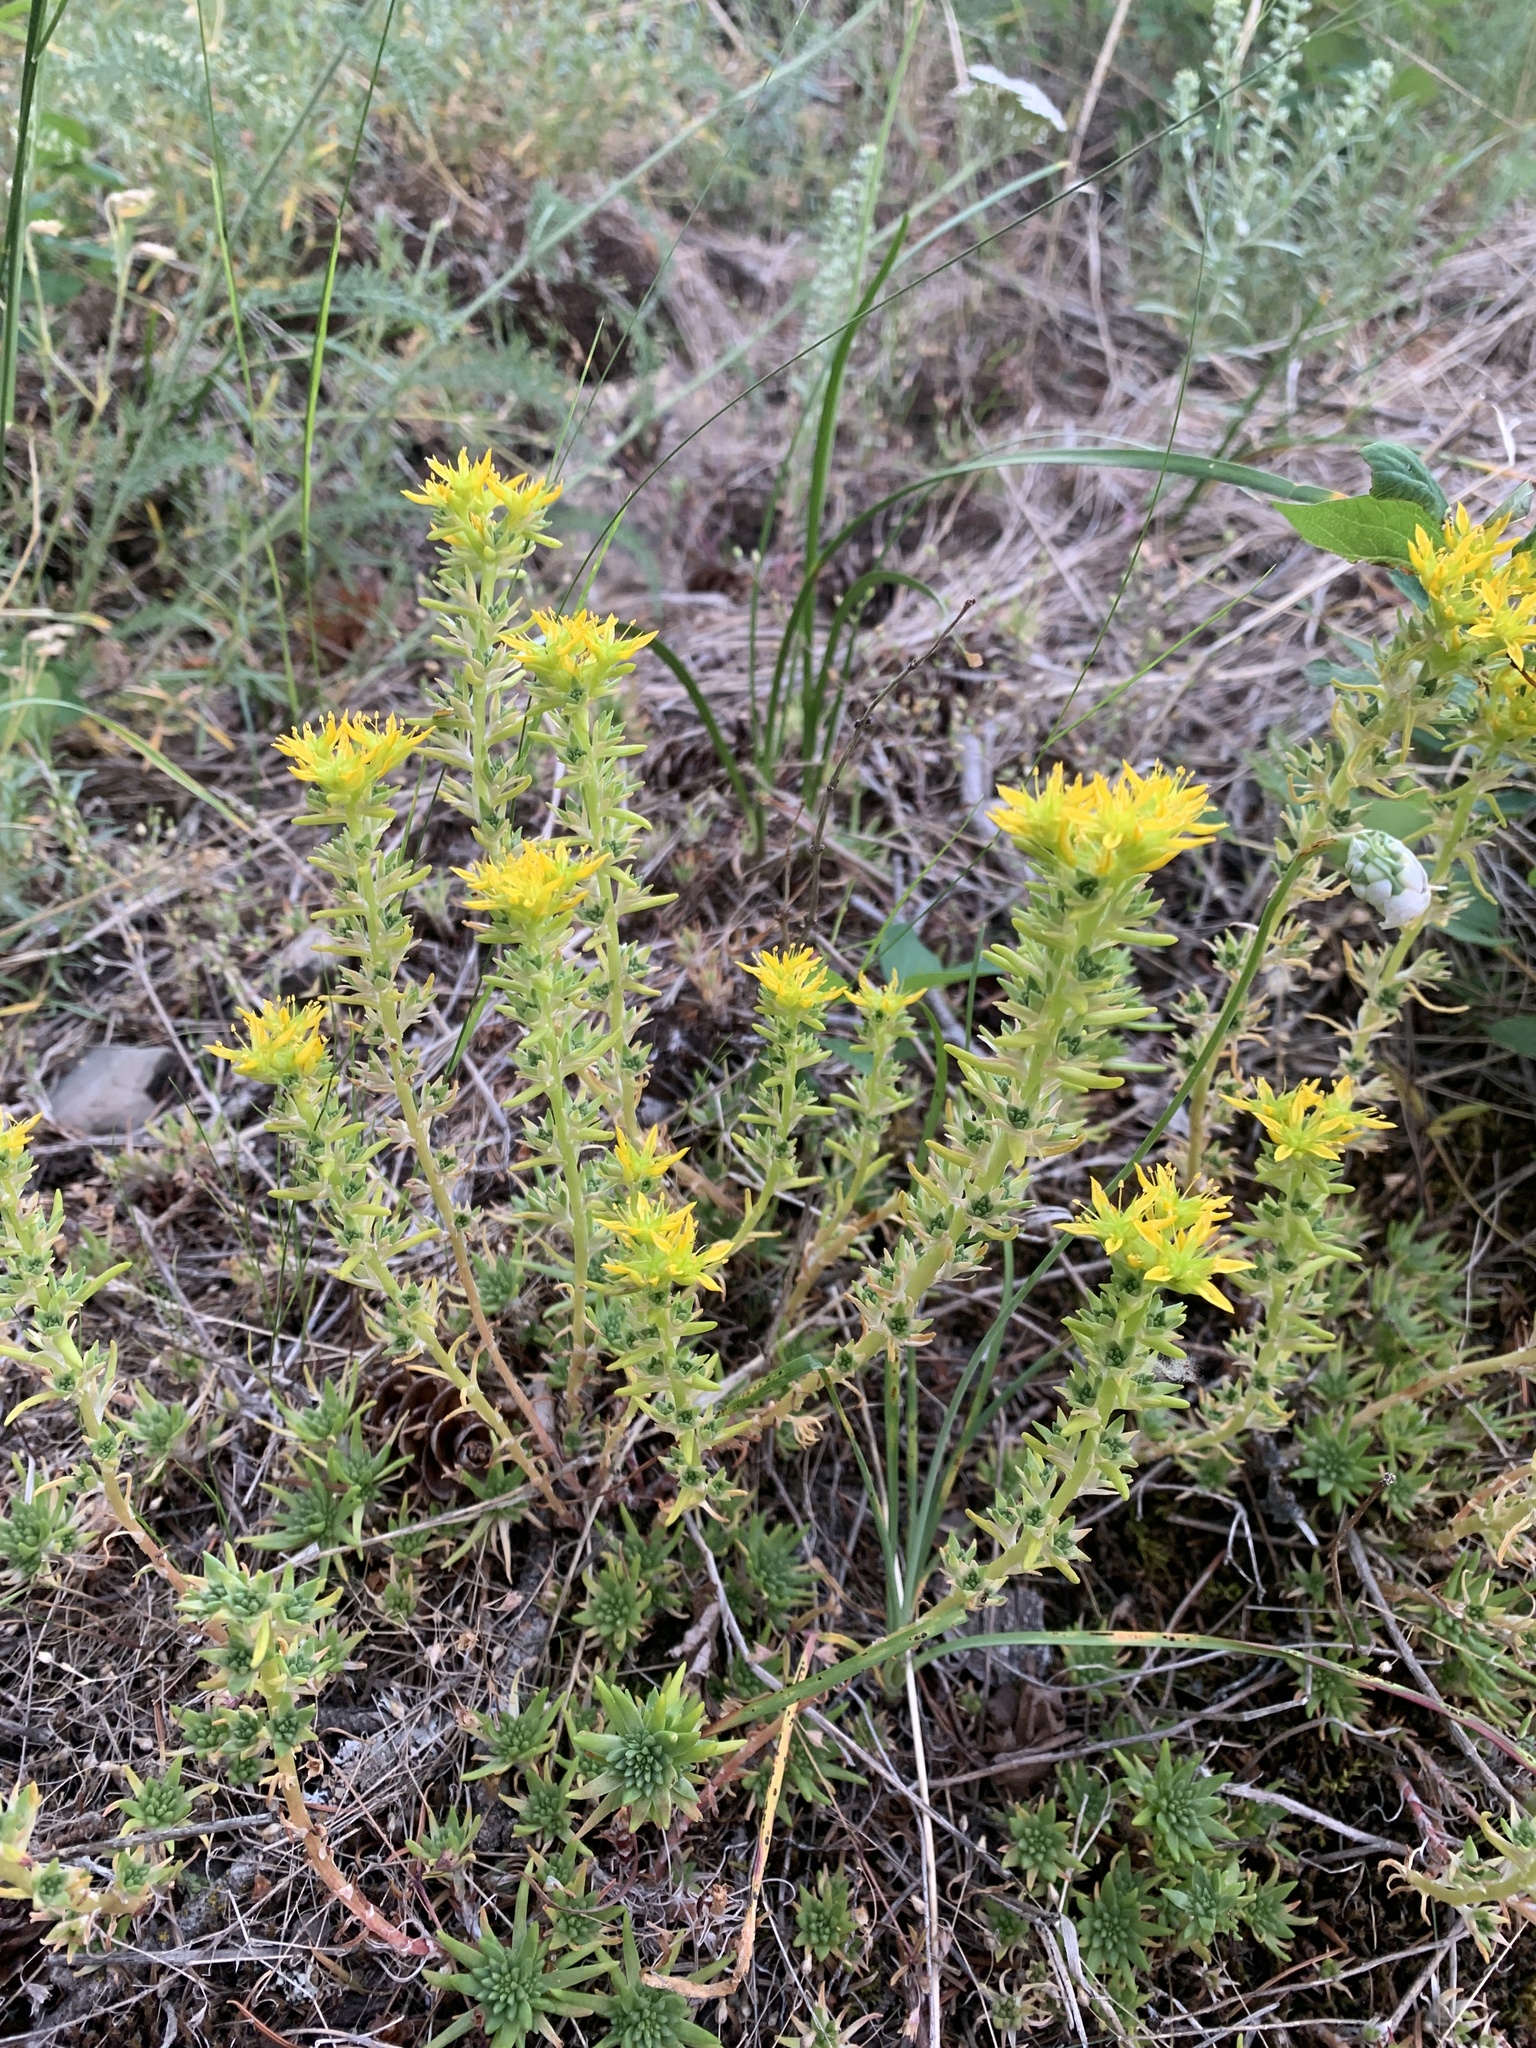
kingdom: Plantae
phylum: Tracheophyta
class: Magnoliopsida
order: Saxifragales
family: Crassulaceae
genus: Sedum
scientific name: Sedum stenopetalum
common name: Narrow-petaled stonecrop
